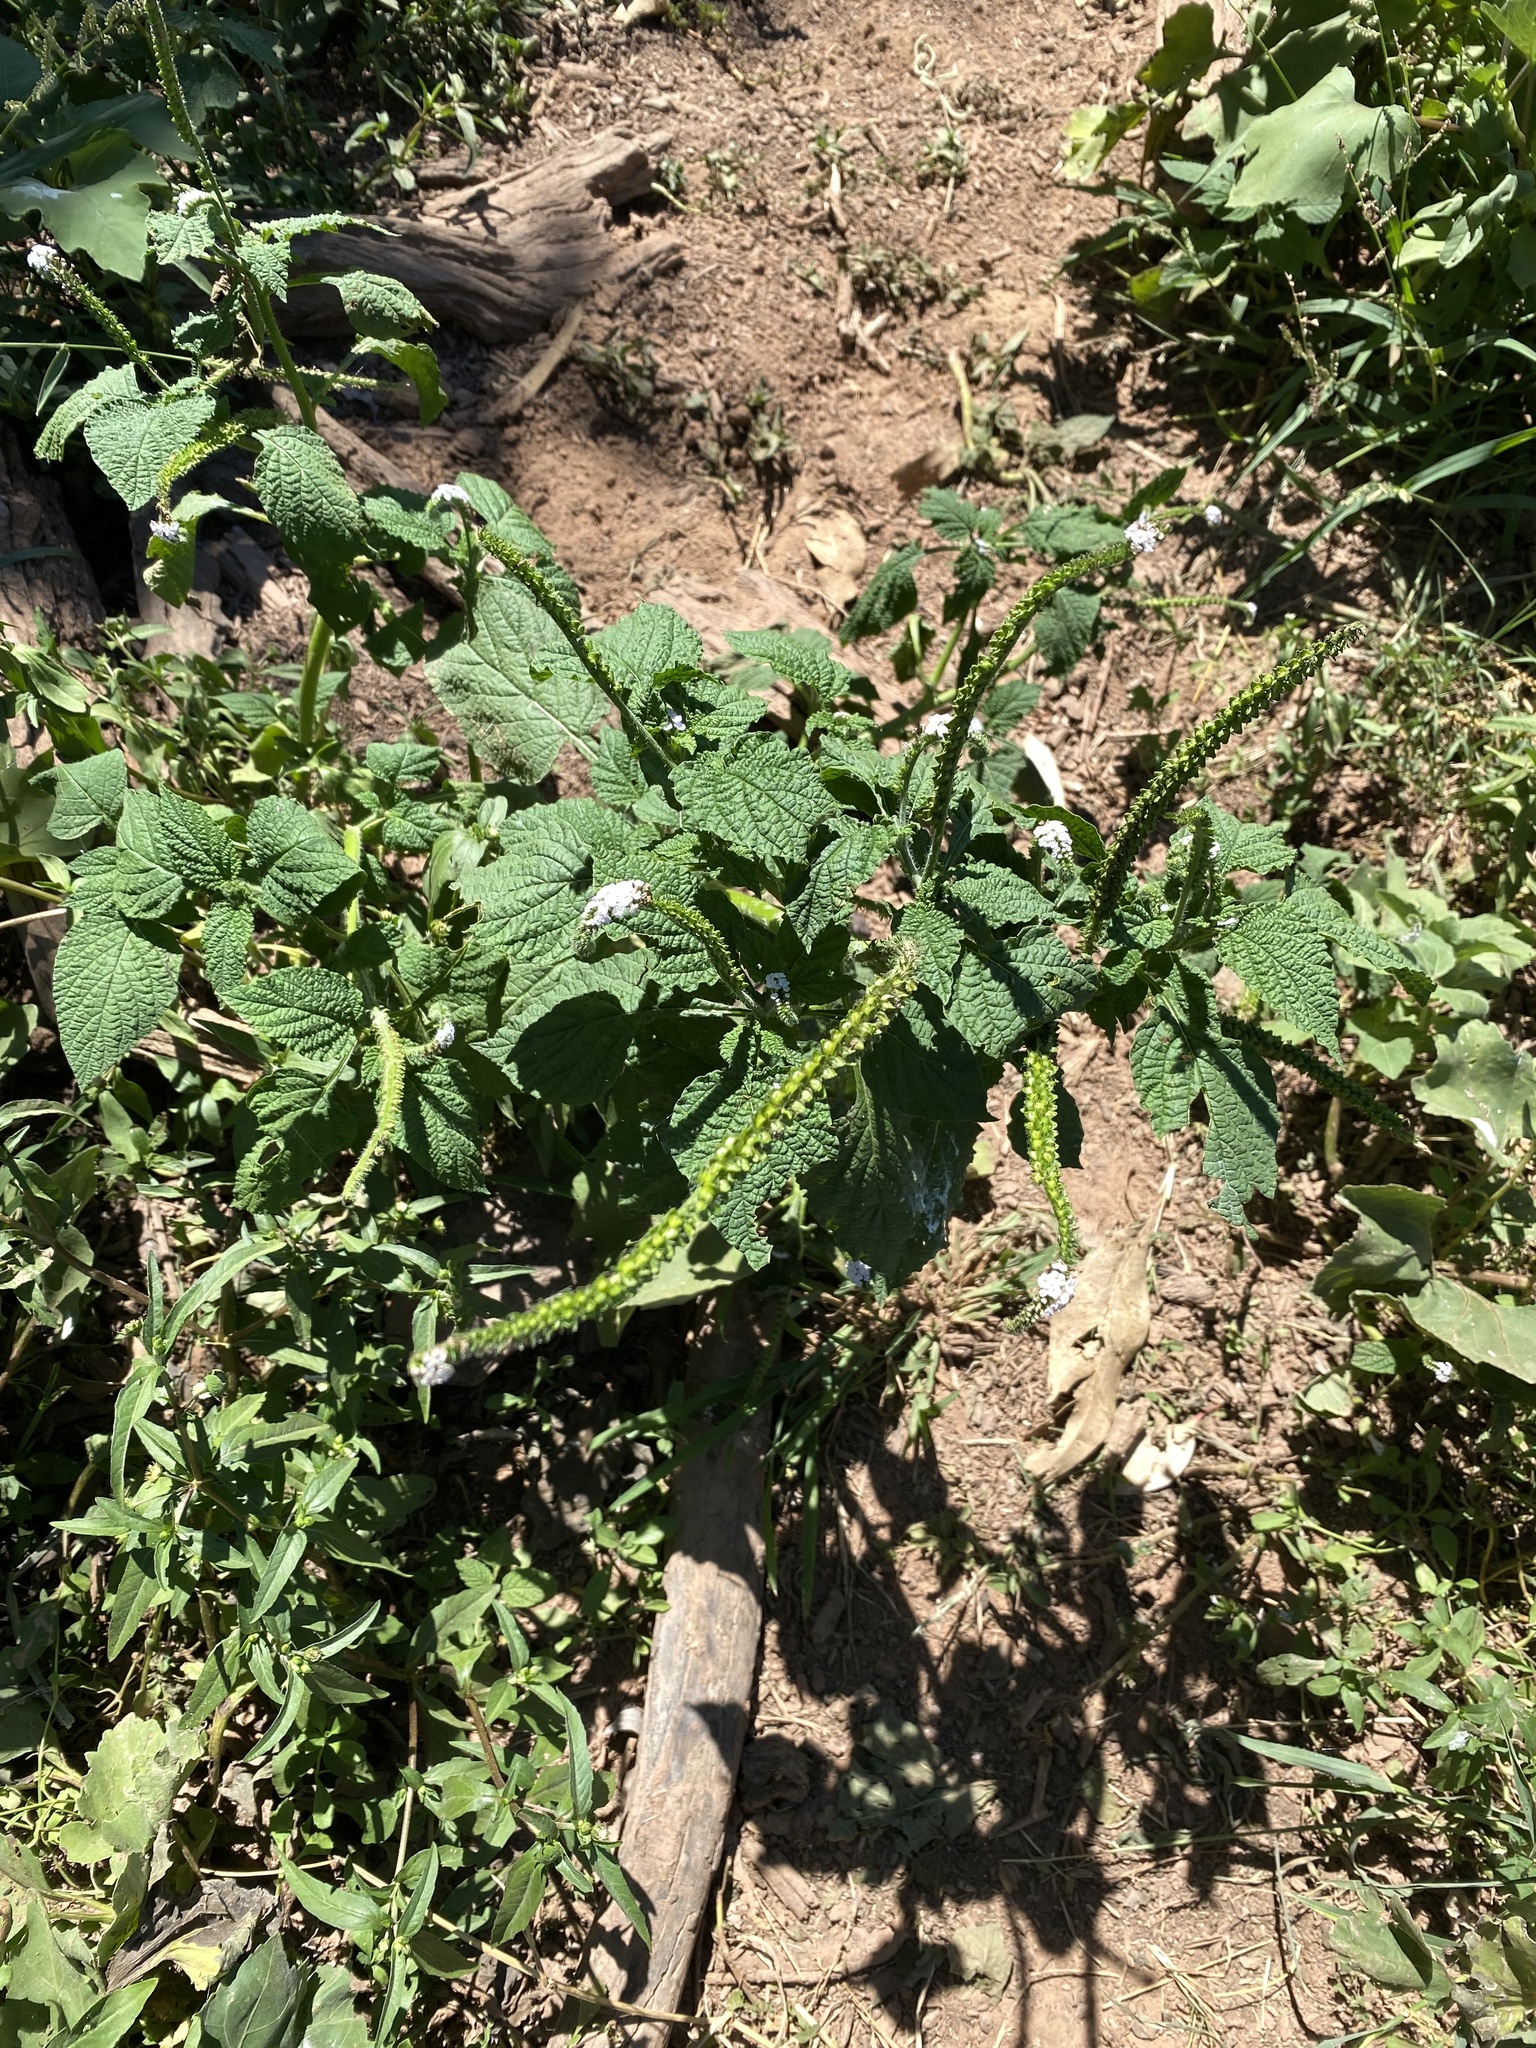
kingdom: Plantae
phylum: Tracheophyta
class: Magnoliopsida
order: Boraginales
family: Heliotropiaceae
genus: Heliotropium
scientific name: Heliotropium indicum
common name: Indian heliotrope
